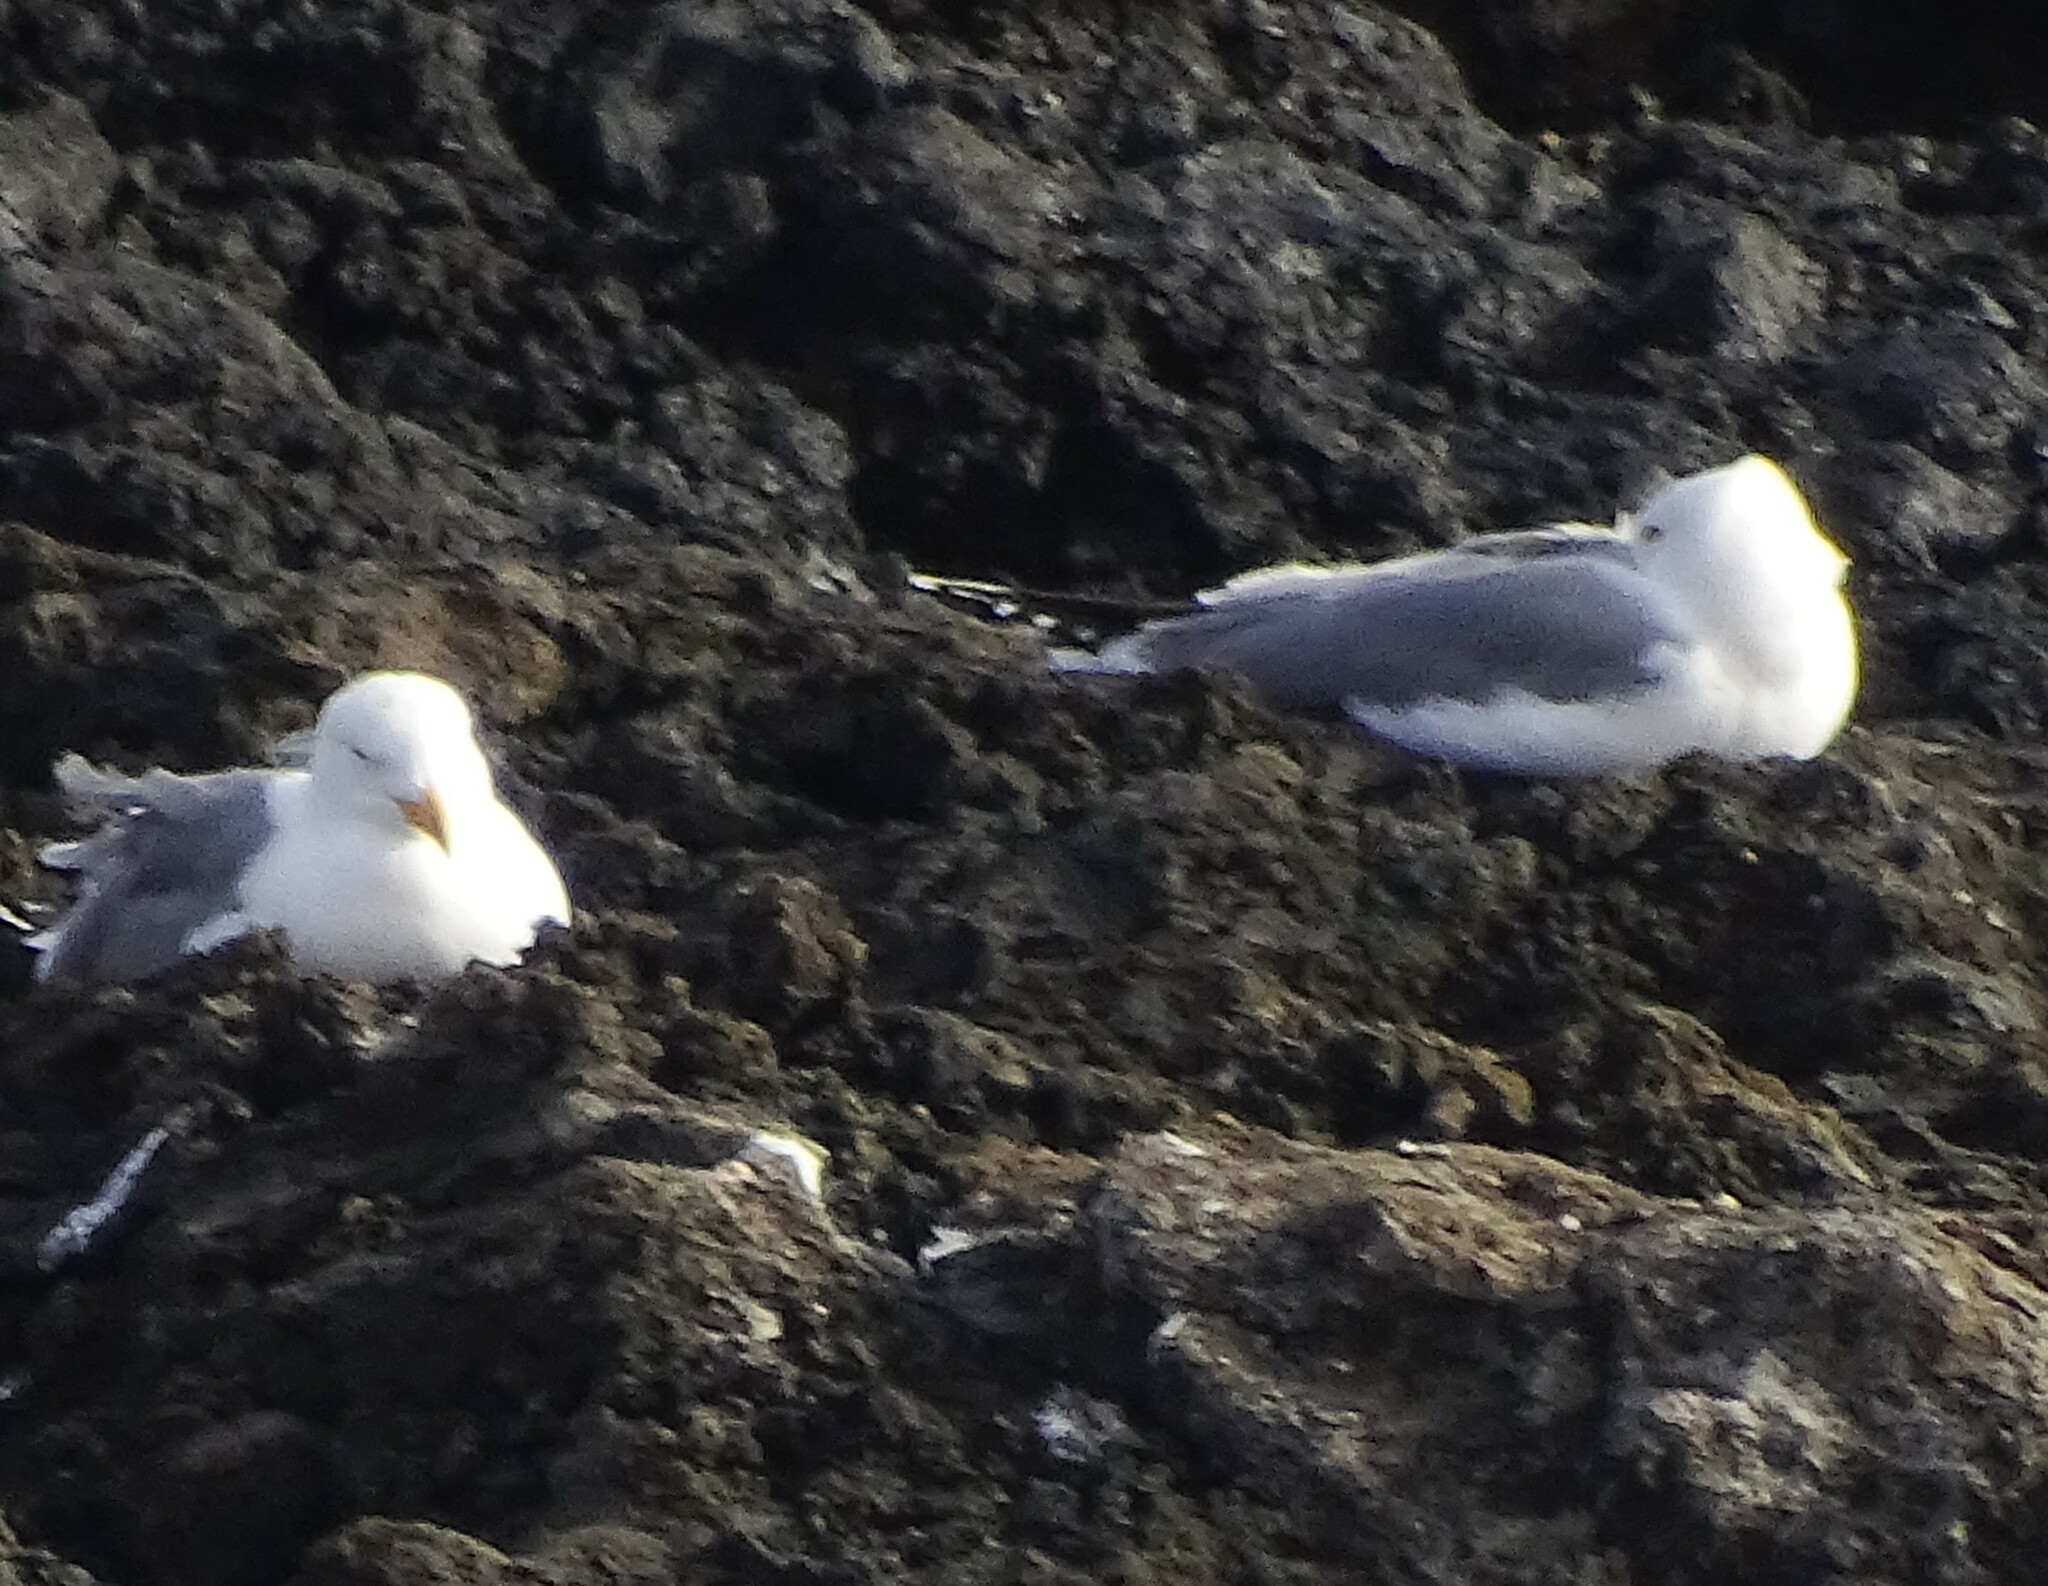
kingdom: Animalia
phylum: Chordata
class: Aves
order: Charadriiformes
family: Laridae
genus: Larus
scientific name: Larus michahellis
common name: Yellow-legged gull
